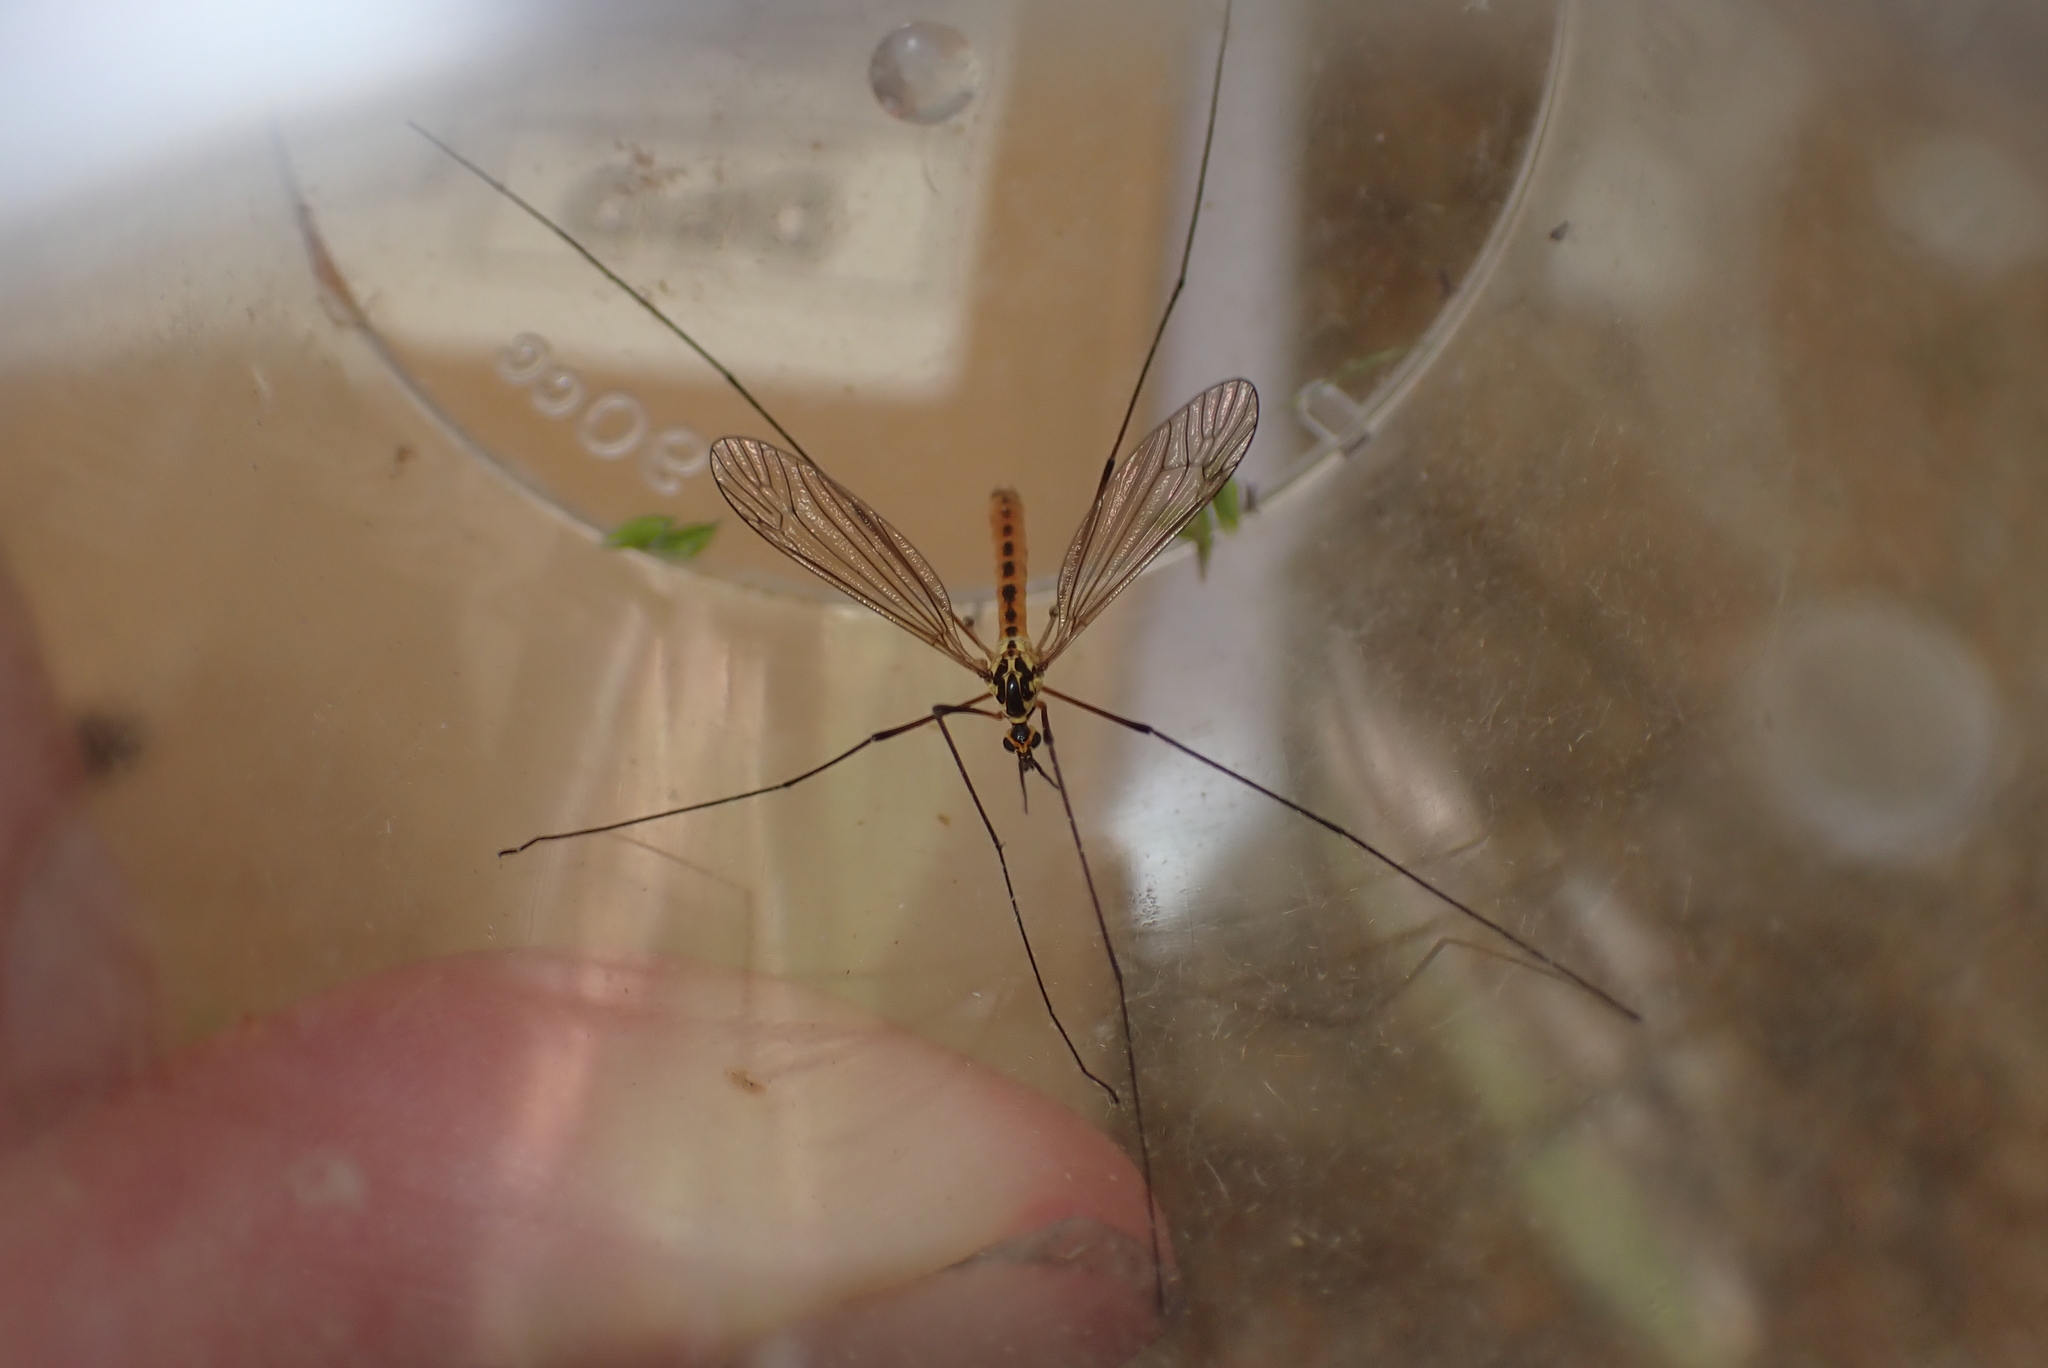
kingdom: Animalia
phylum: Arthropoda
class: Insecta
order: Diptera
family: Tipulidae
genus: Nephrotoma
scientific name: Nephrotoma flavescens
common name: Tiger cranefly
